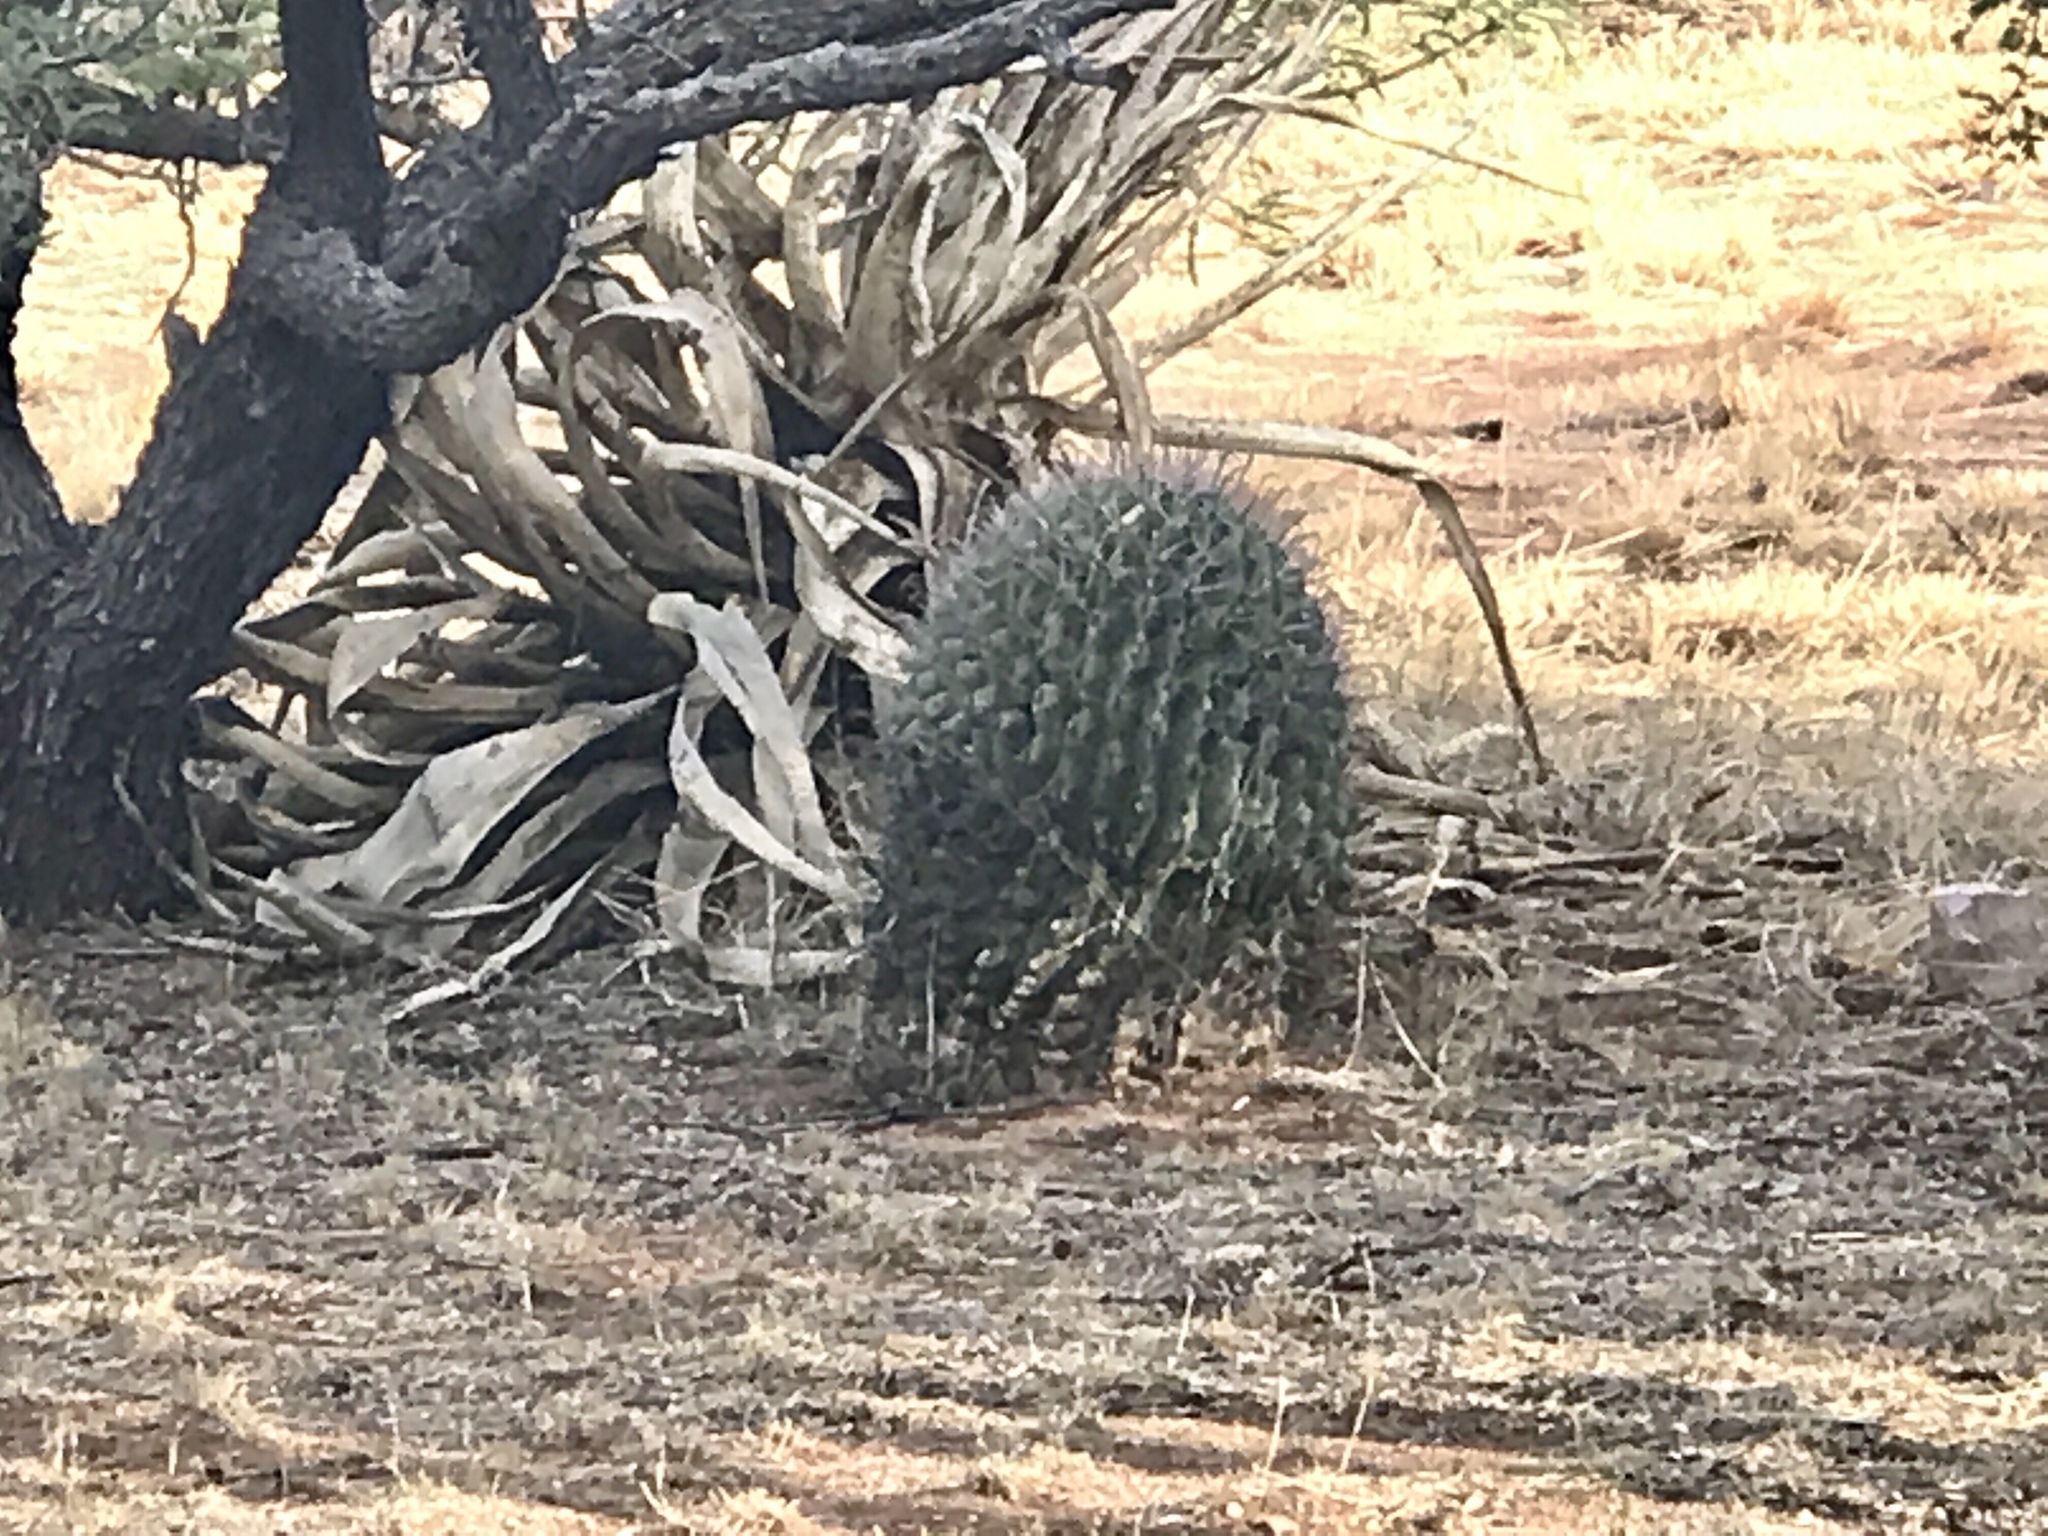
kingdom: Plantae
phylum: Tracheophyta
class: Magnoliopsida
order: Caryophyllales
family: Cactaceae
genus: Ferocactus
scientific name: Ferocactus wislizeni
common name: Candy barrel cactus
